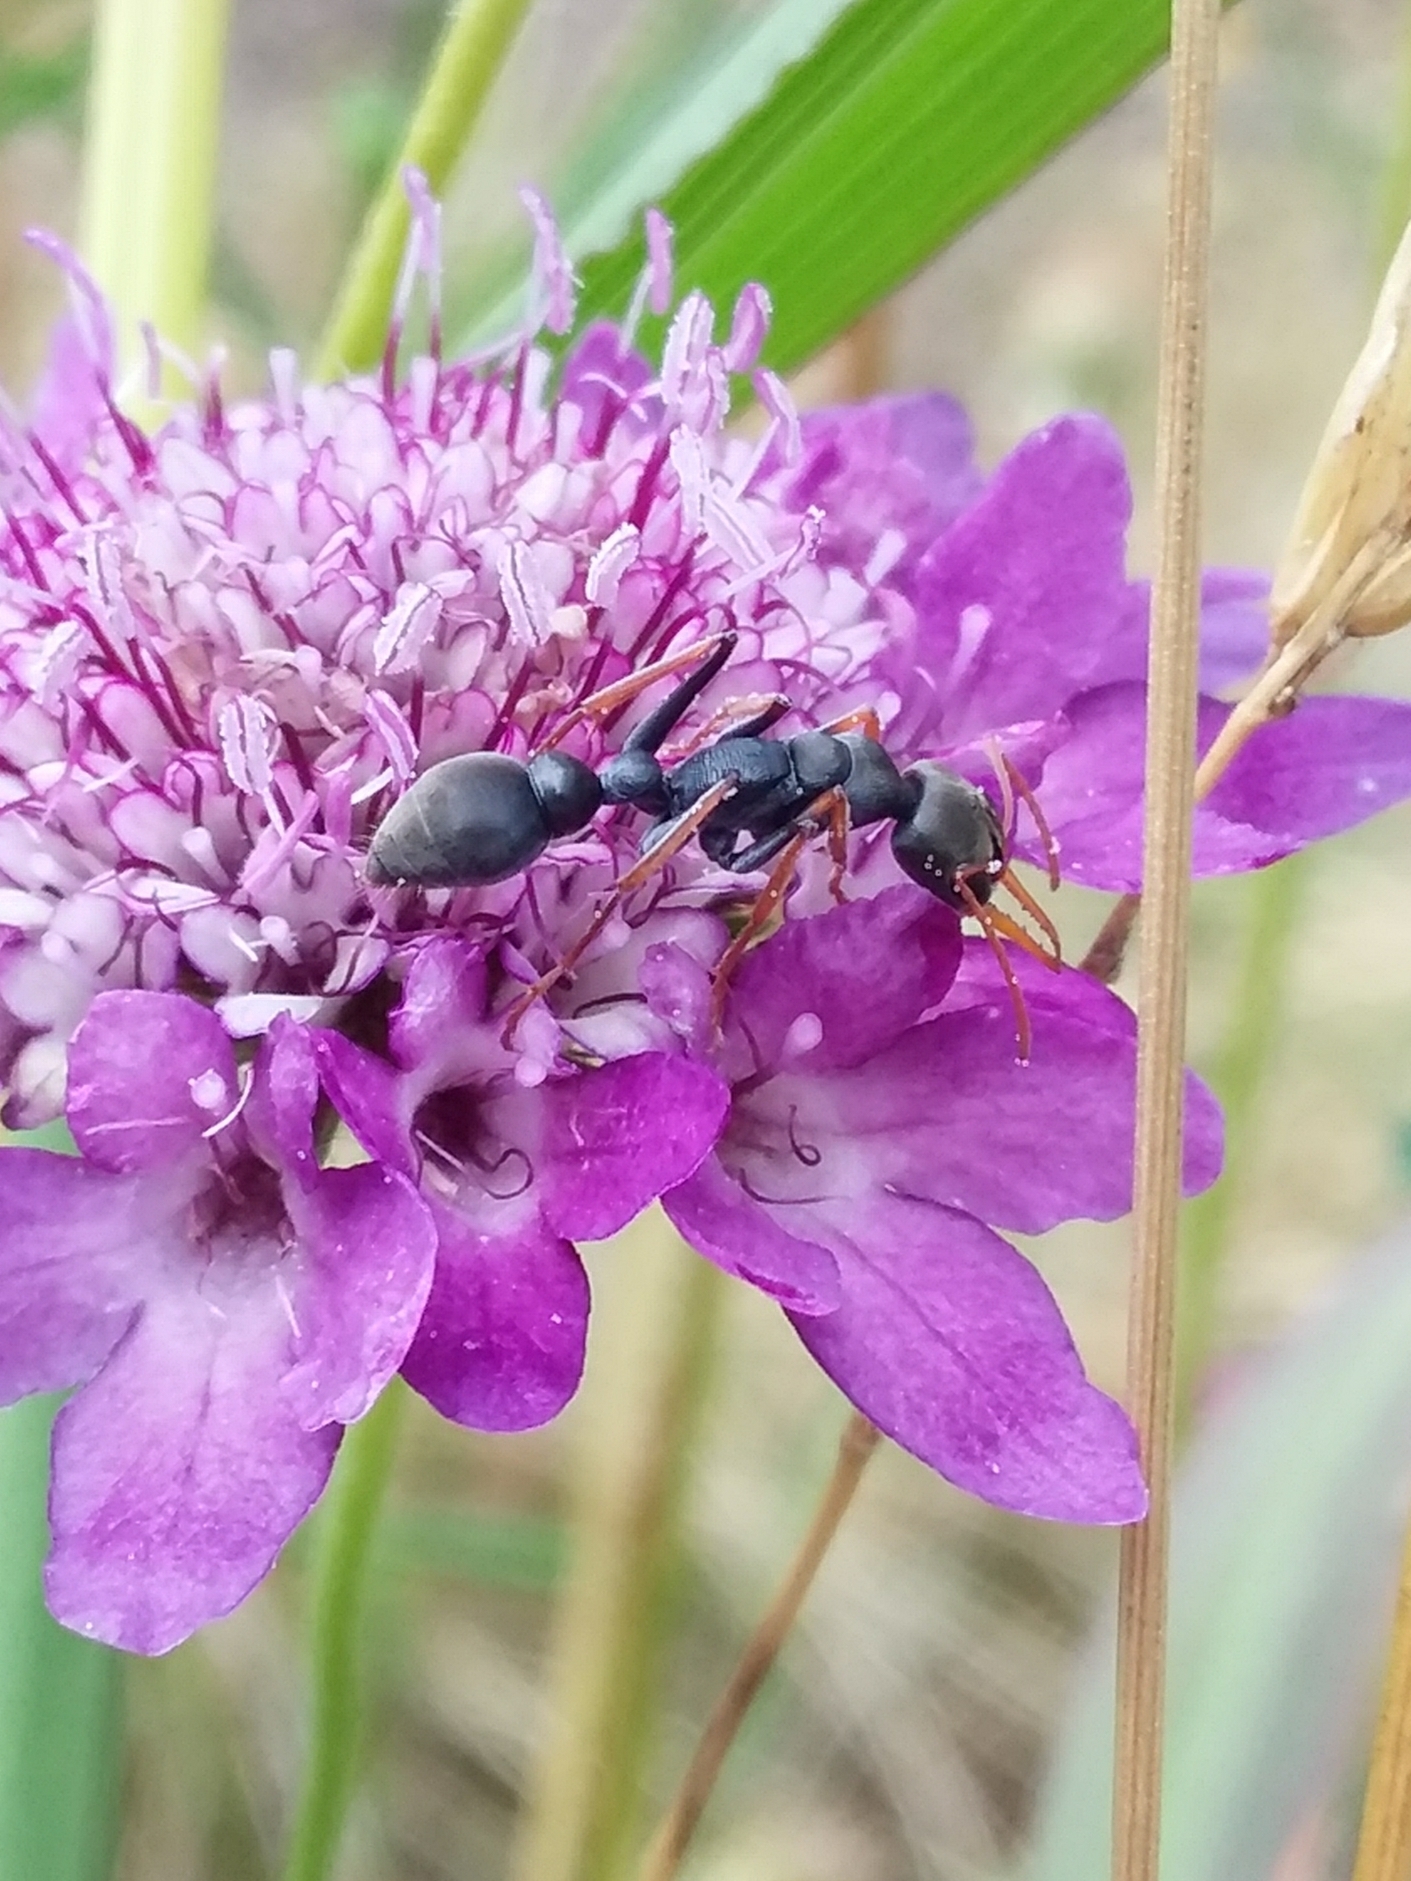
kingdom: Animalia
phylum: Arthropoda
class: Insecta
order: Hymenoptera
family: Formicidae
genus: Myrmecia
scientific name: Myrmecia pilosula
